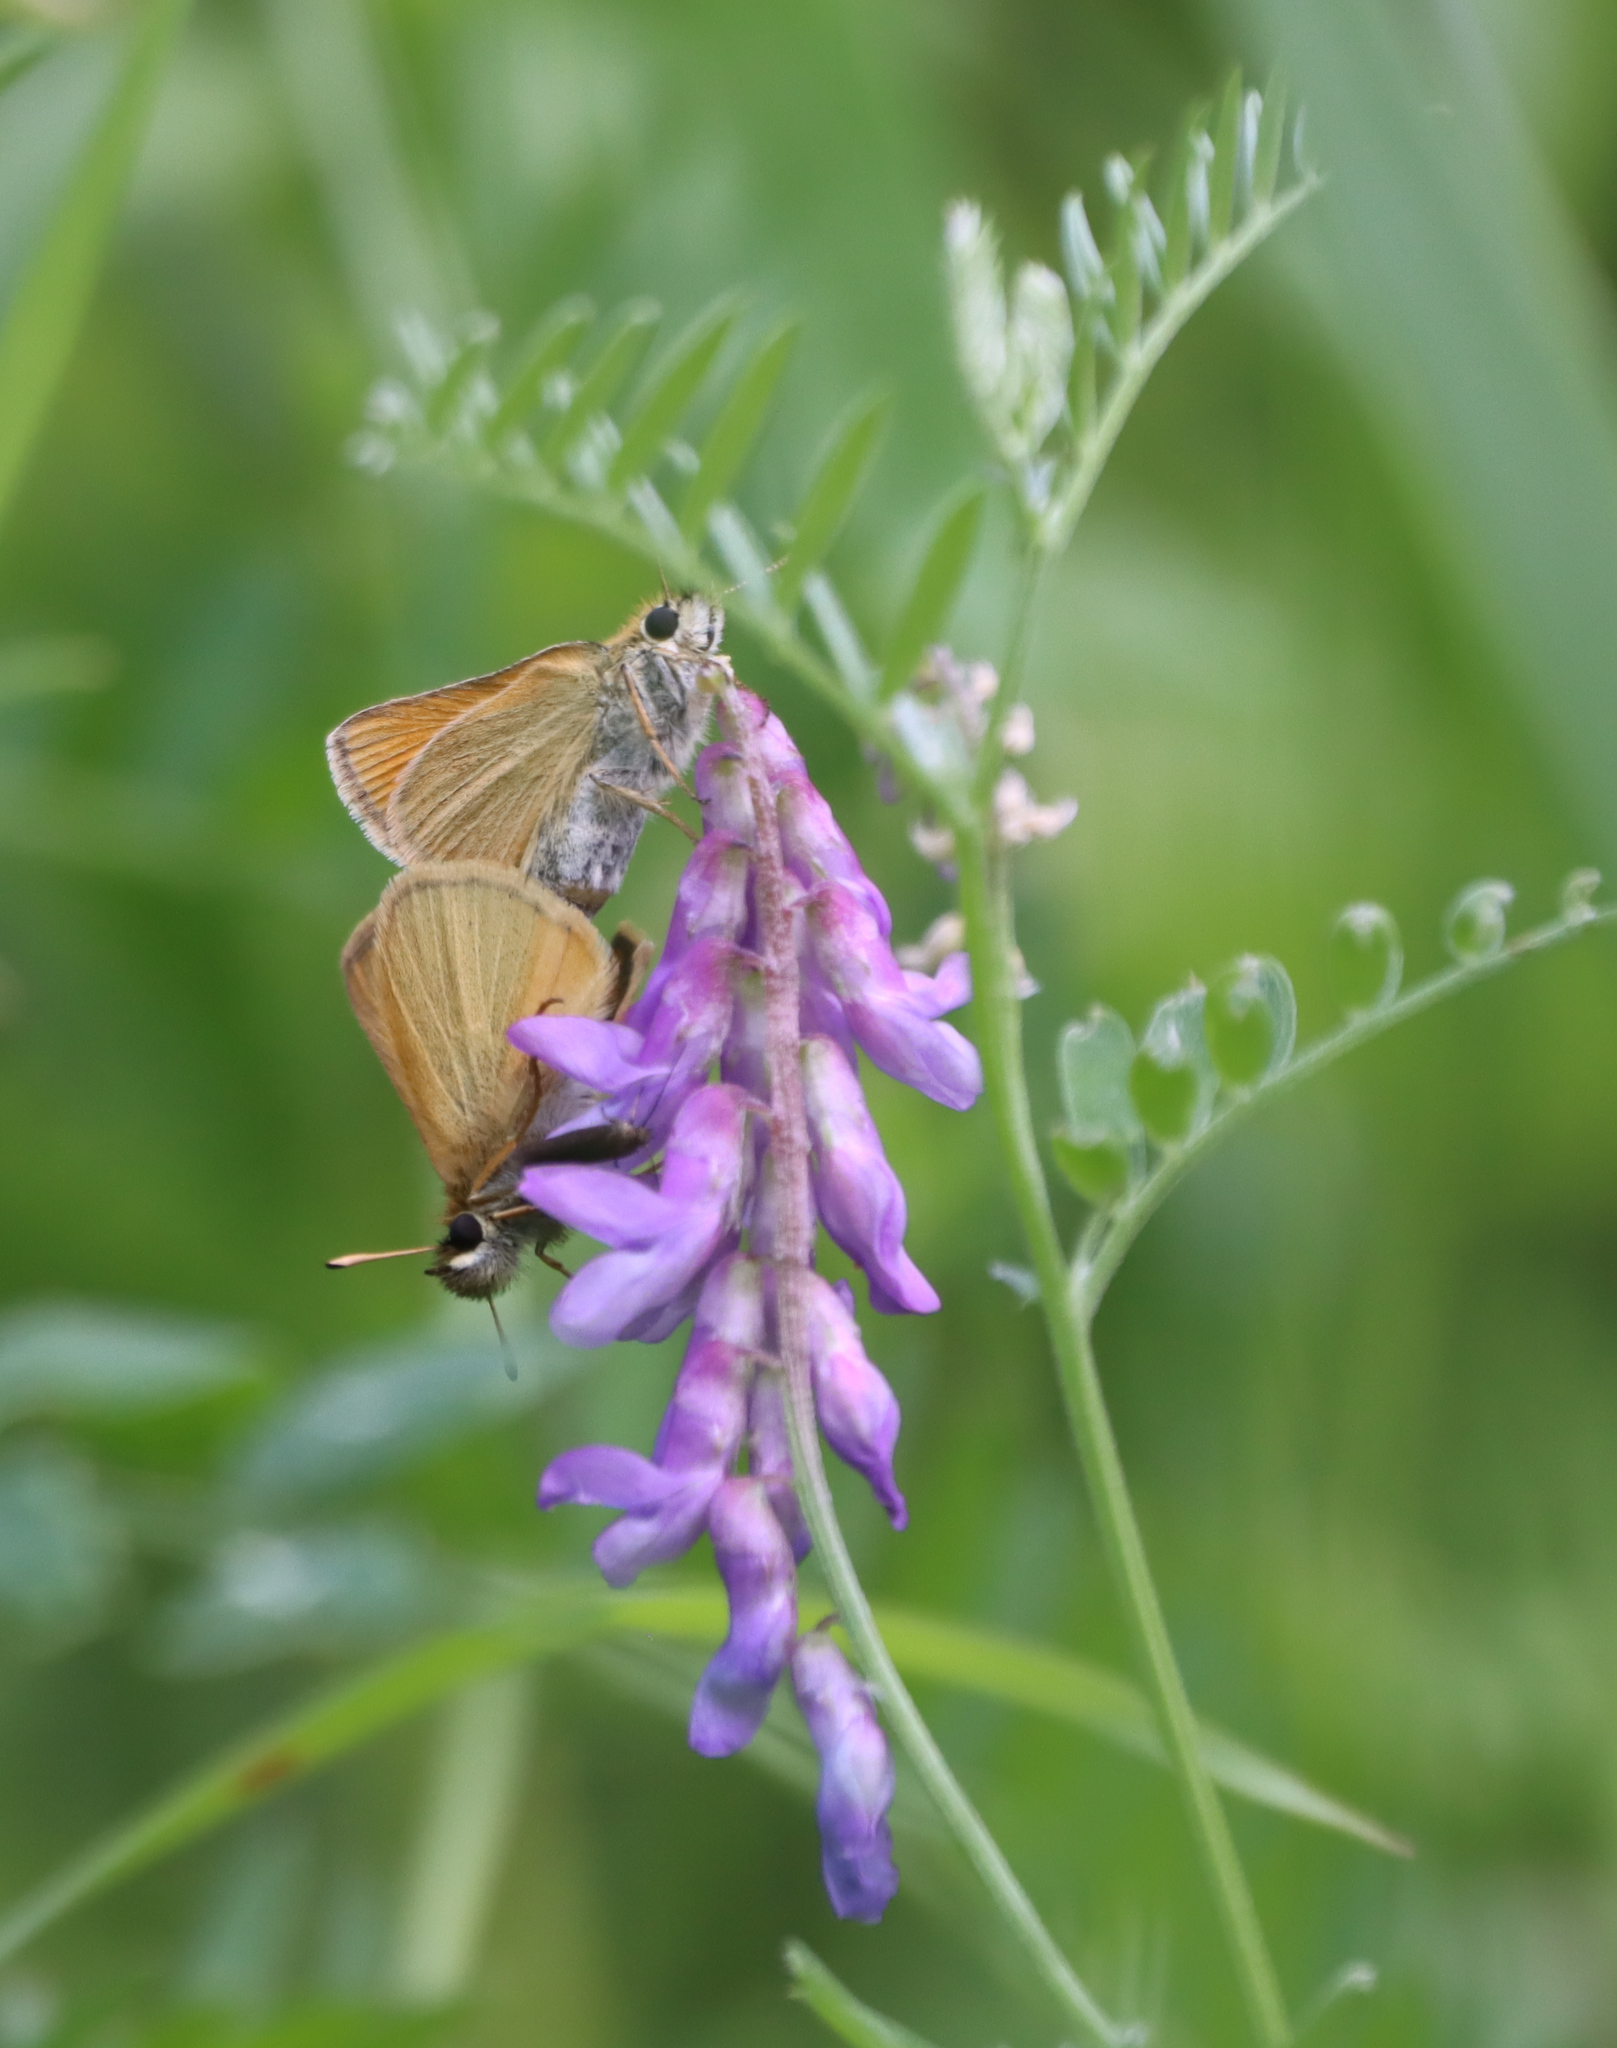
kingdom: Plantae
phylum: Tracheophyta
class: Magnoliopsida
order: Fabales
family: Fabaceae
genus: Vicia
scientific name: Vicia cracca
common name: Bird vetch
